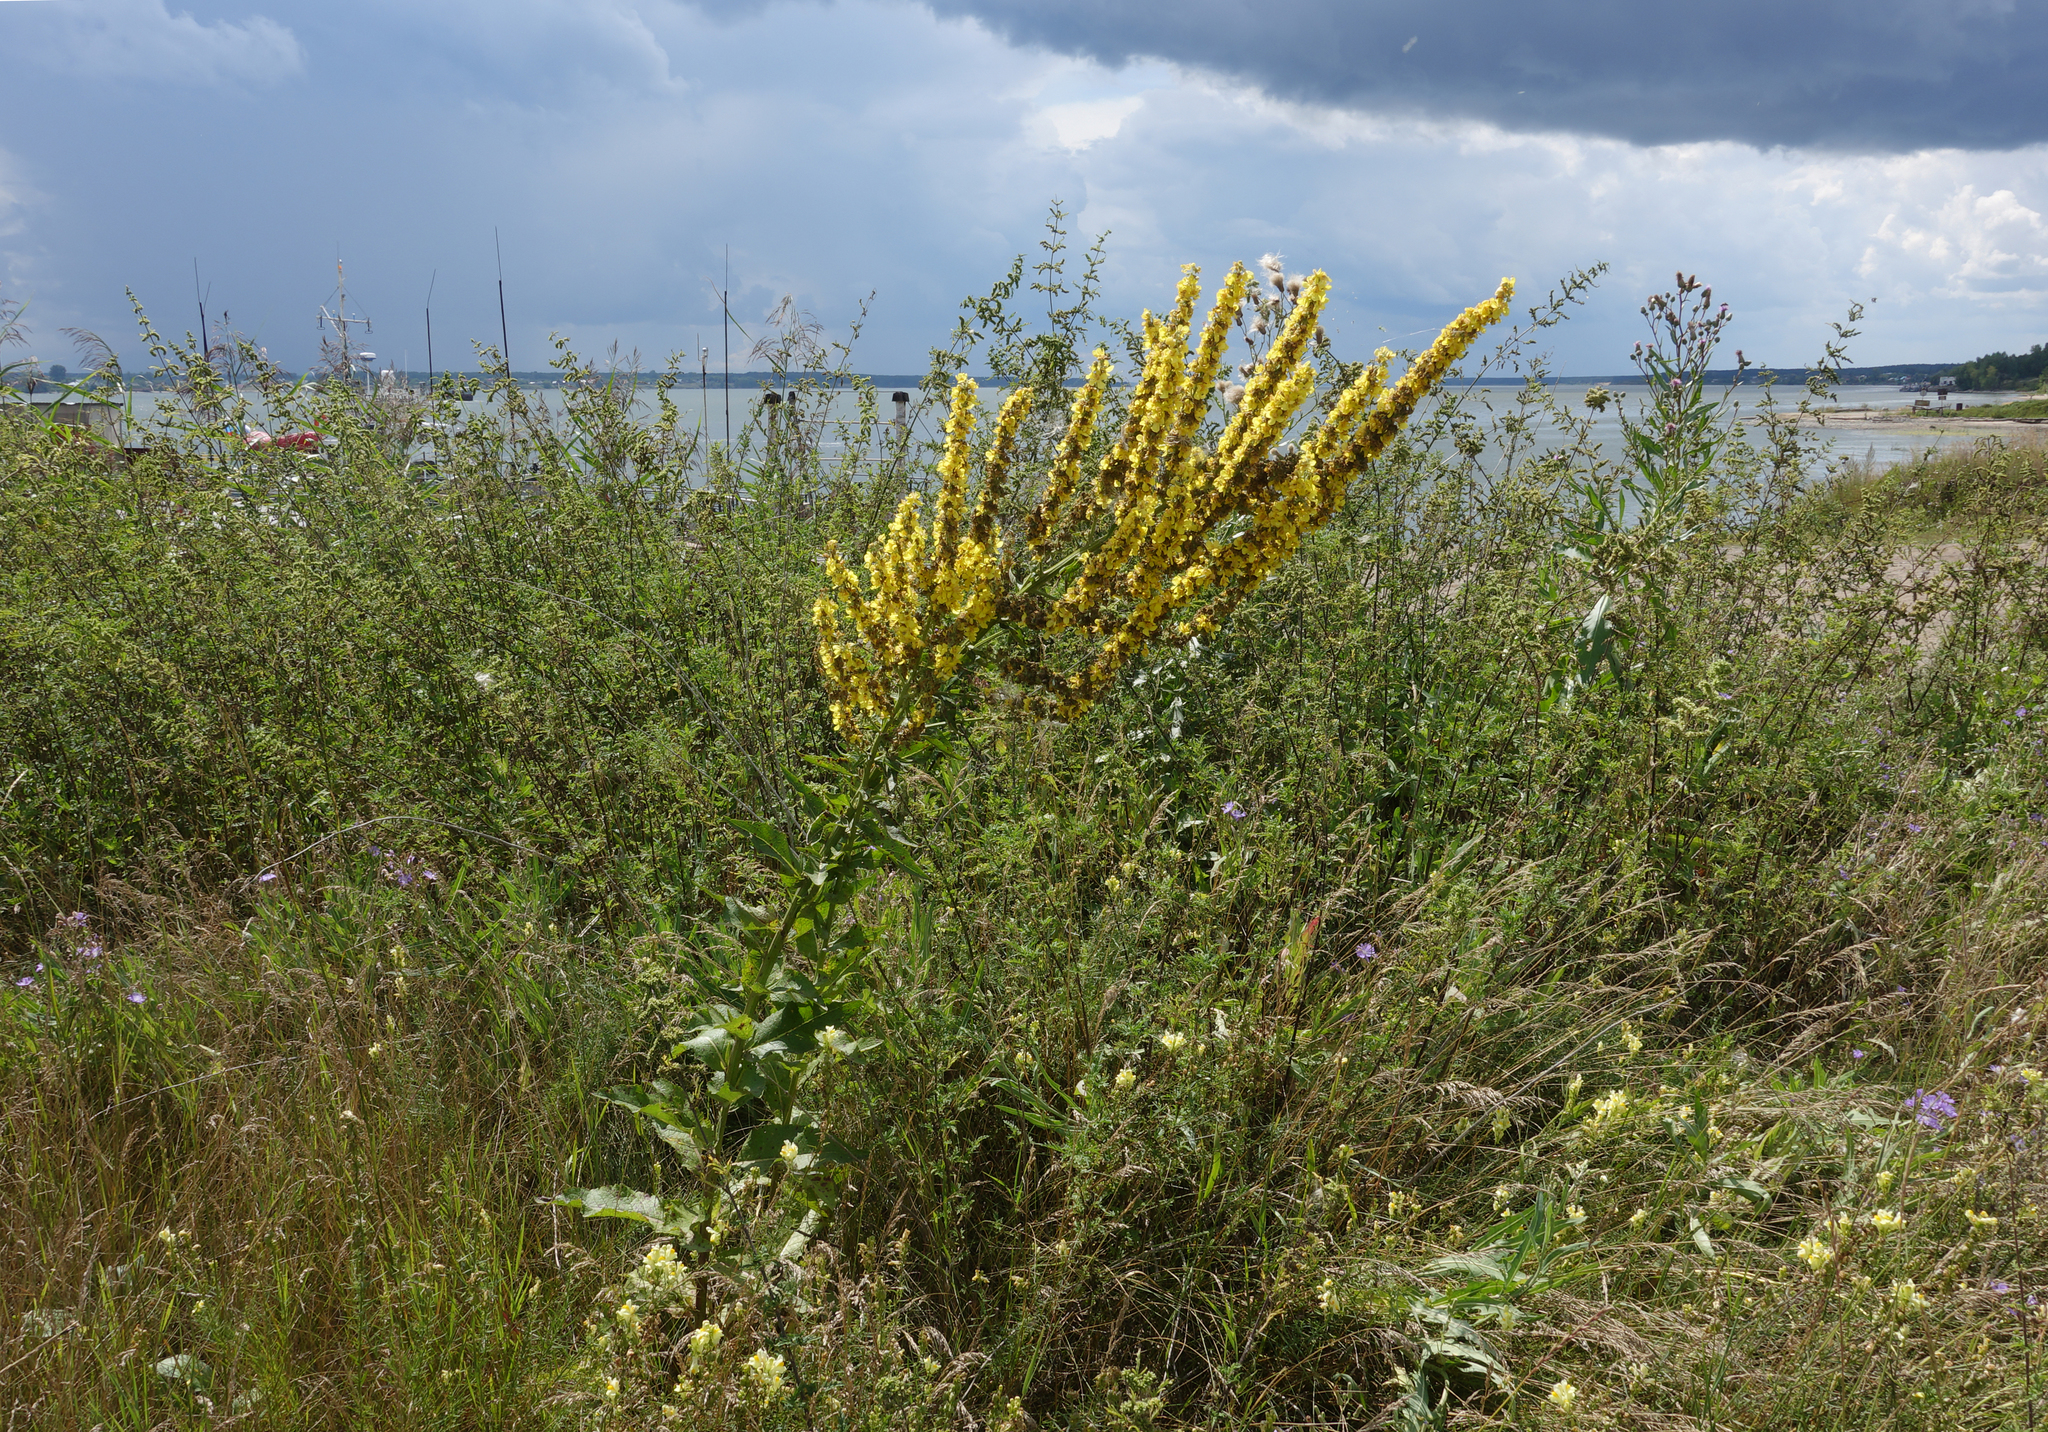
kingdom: Plantae
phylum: Tracheophyta
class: Magnoliopsida
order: Lamiales
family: Scrophulariaceae
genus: Verbascum
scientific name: Verbascum lychnitis
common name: White mullein
